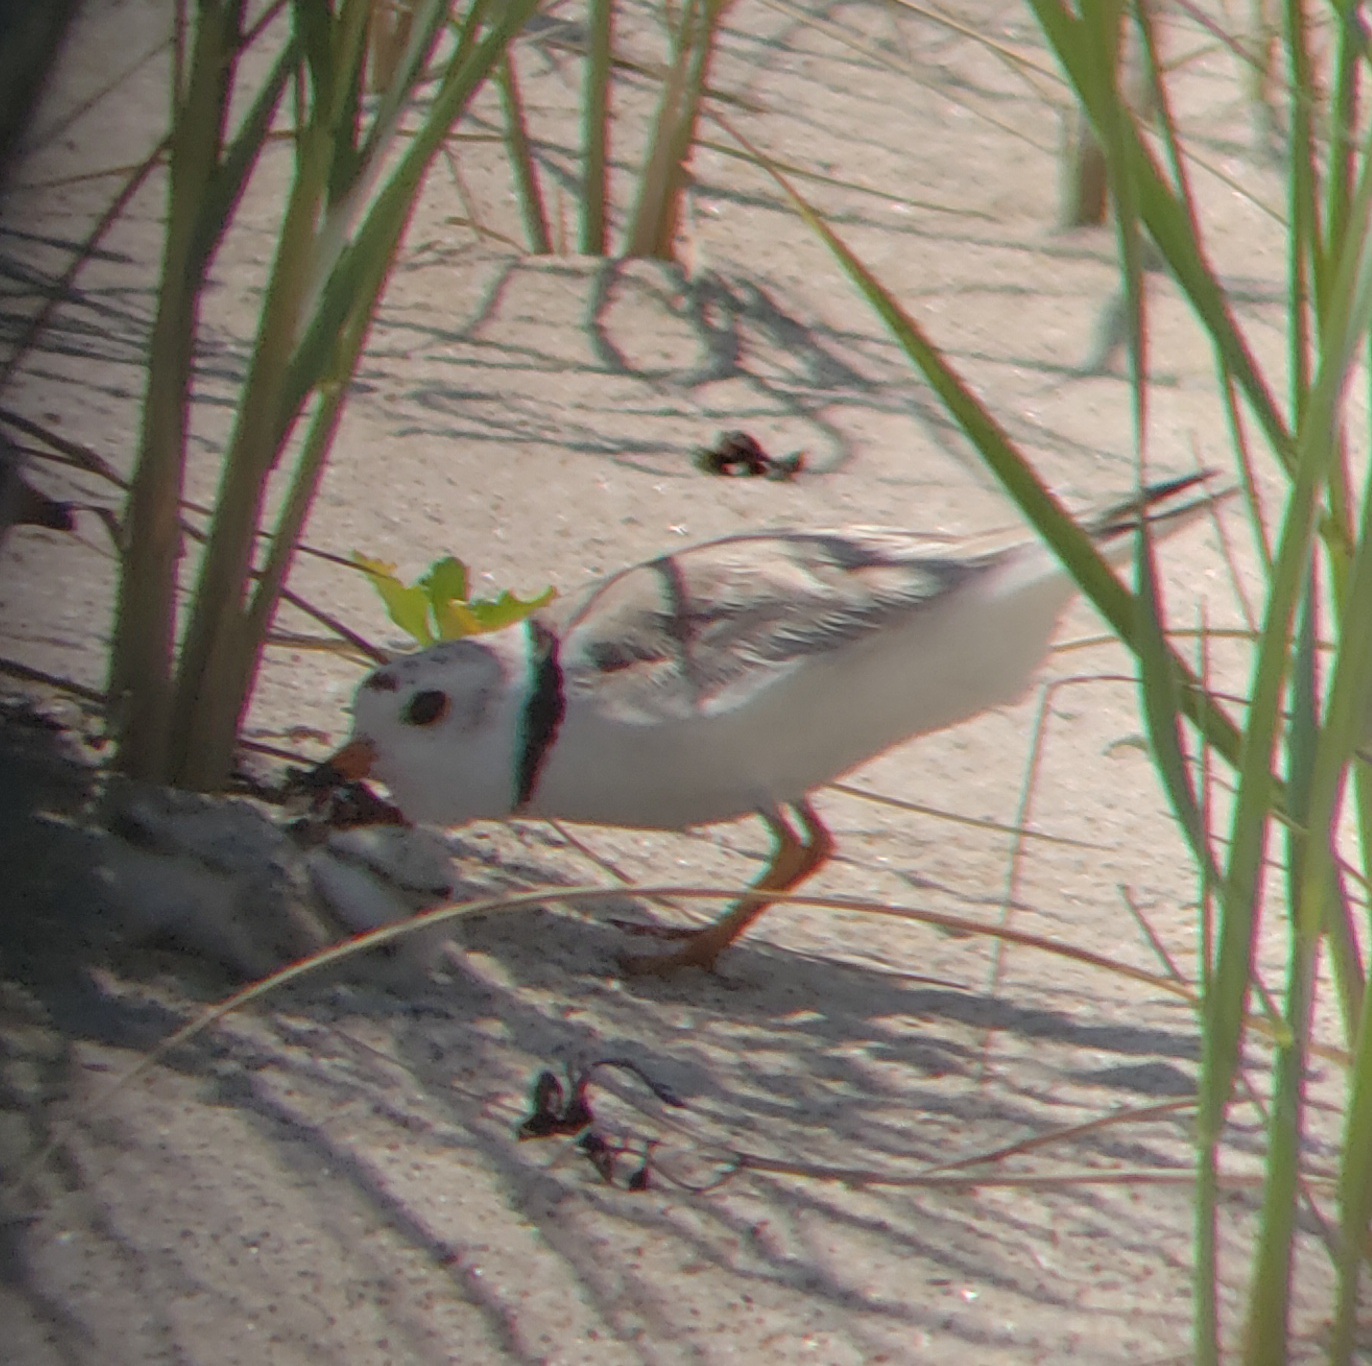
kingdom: Animalia
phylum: Chordata
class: Aves
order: Charadriiformes
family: Charadriidae
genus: Charadrius
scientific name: Charadrius melodus
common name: Piping plover
